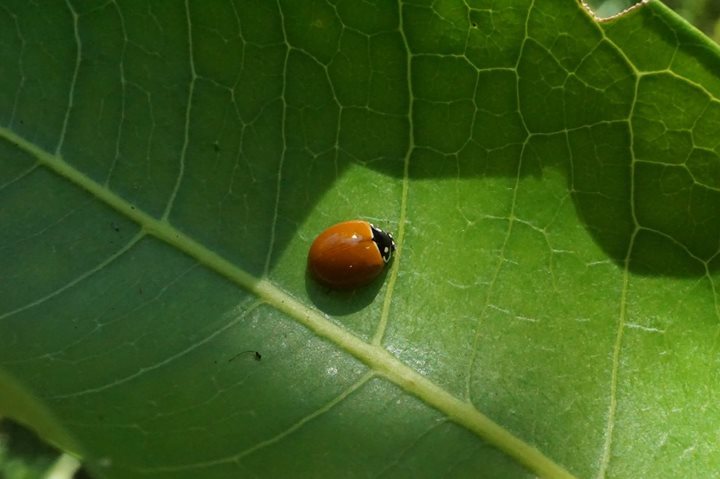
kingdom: Animalia
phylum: Arthropoda
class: Insecta
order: Coleoptera
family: Coccinellidae
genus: Cycloneda
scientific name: Cycloneda sanguinea
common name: Ladybird beetle
